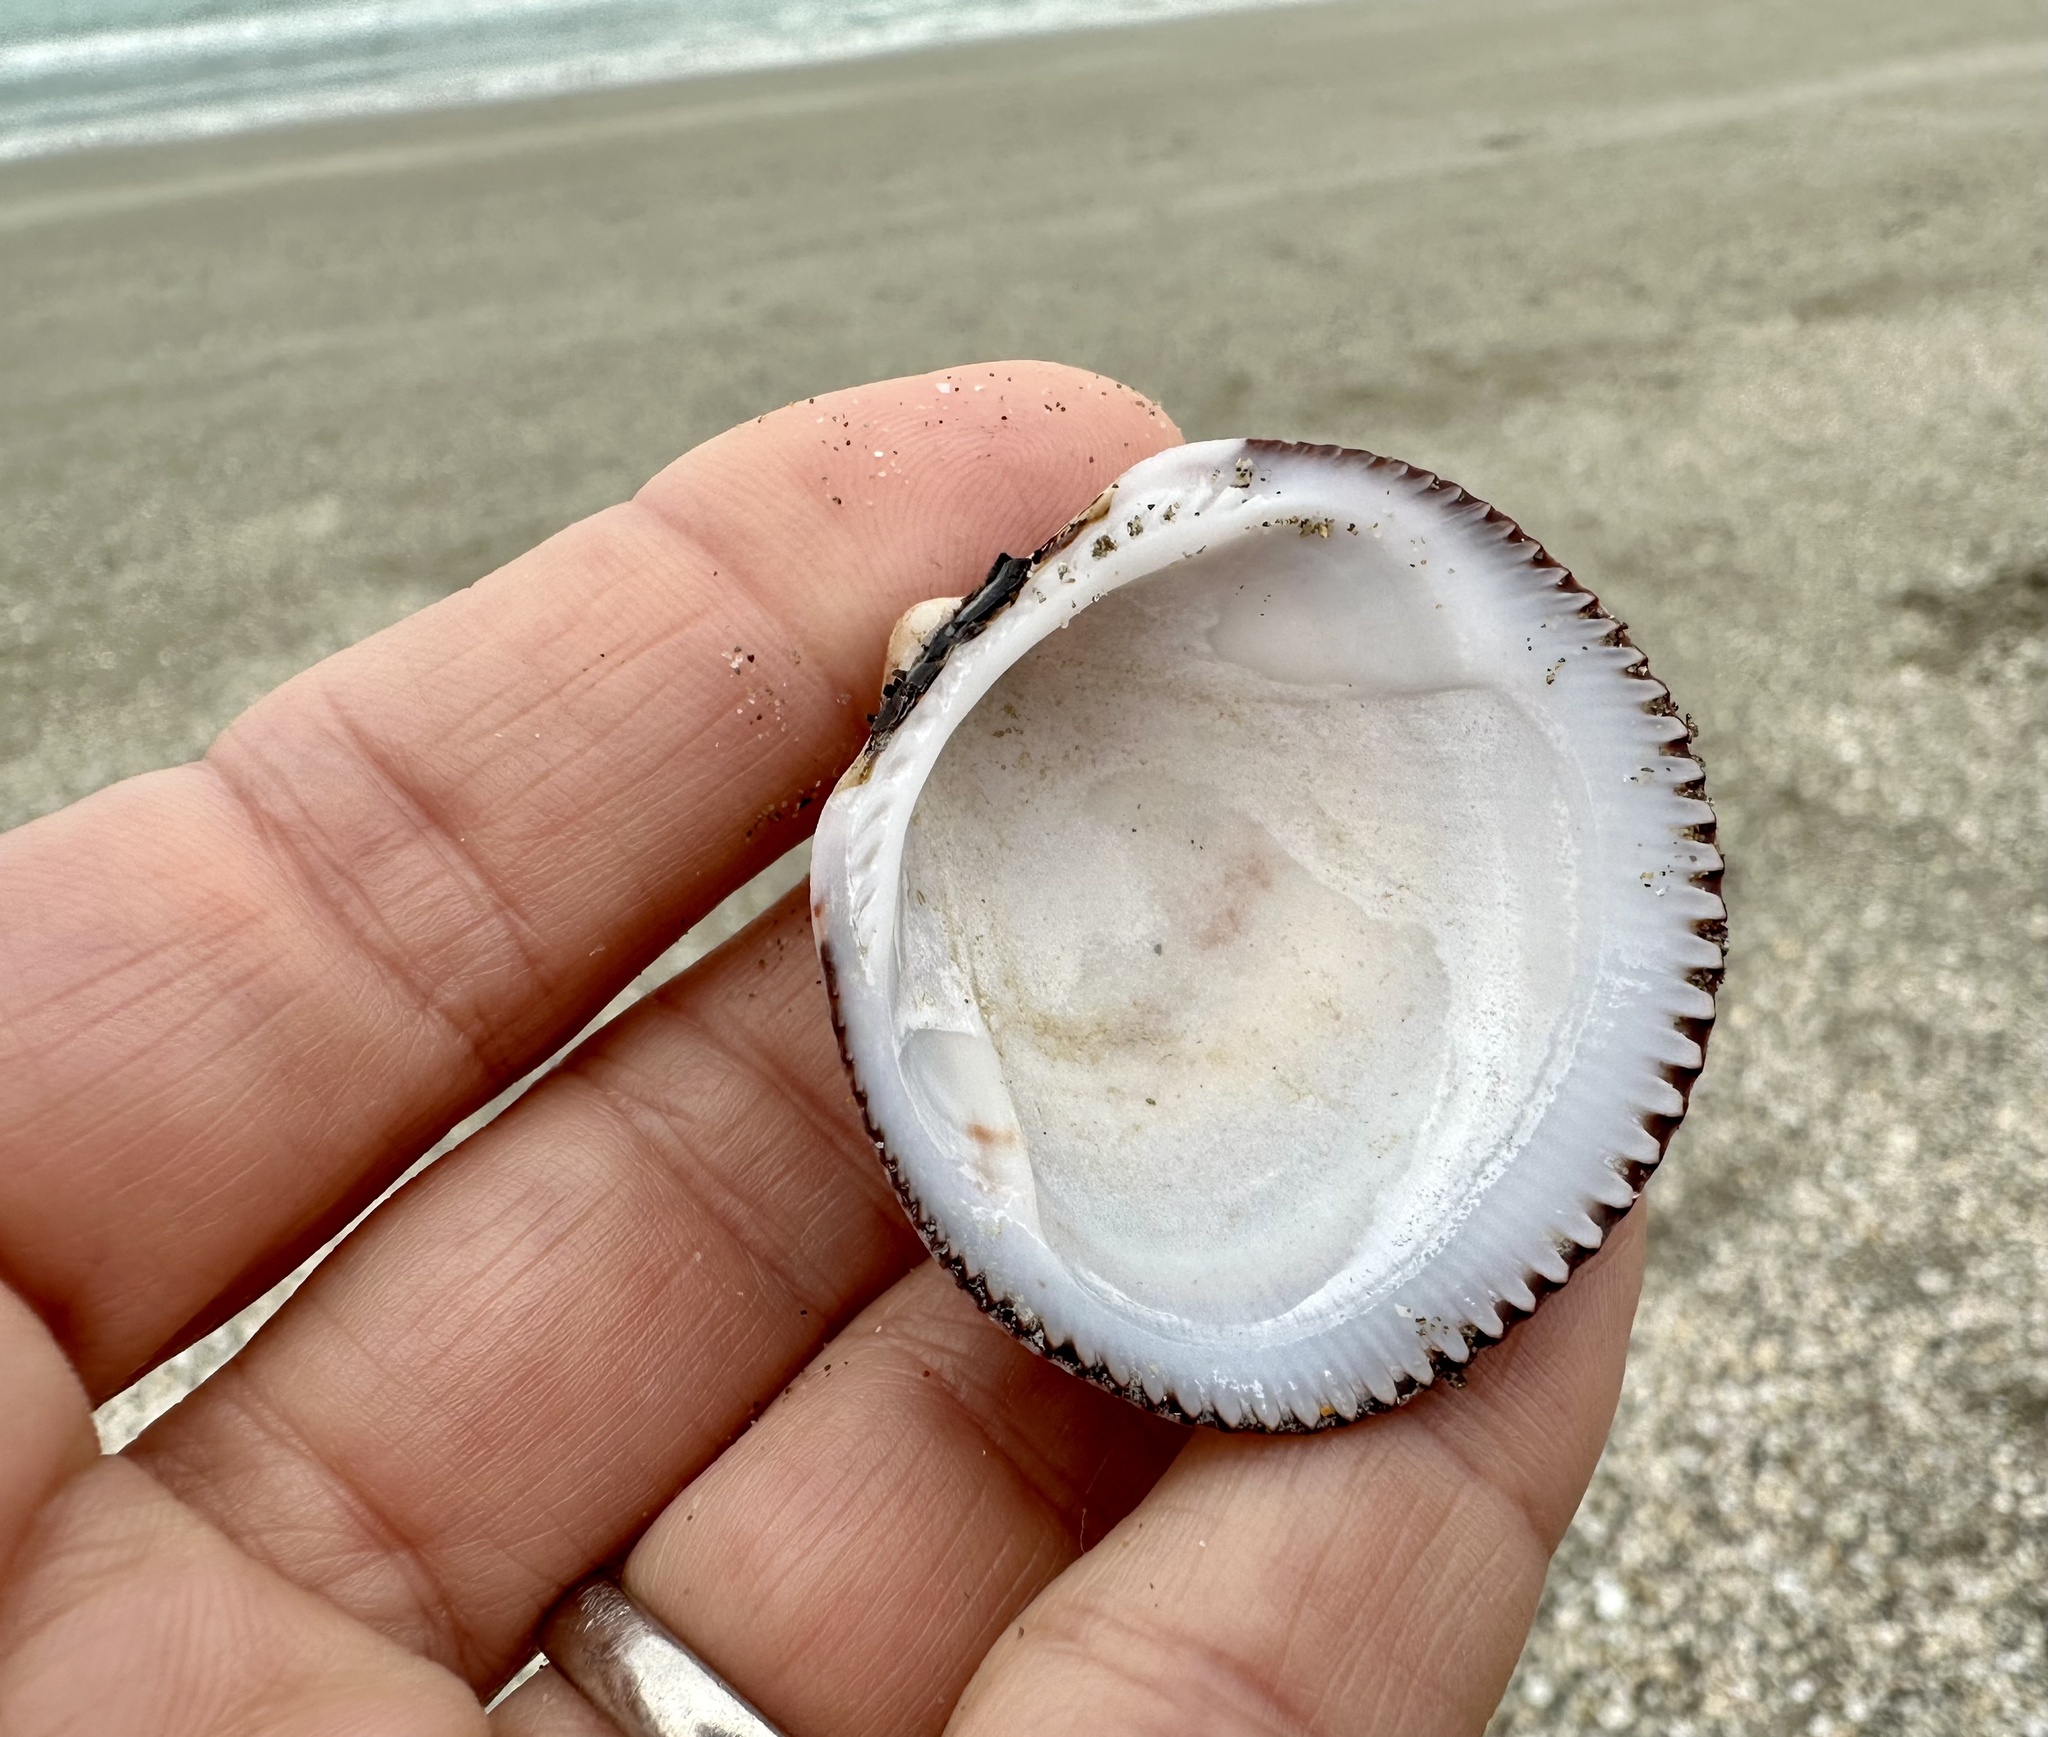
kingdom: Animalia
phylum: Mollusca
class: Bivalvia
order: Arcida
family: Glycymerididae
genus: Glycymeris
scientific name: Glycymeris nummaria
